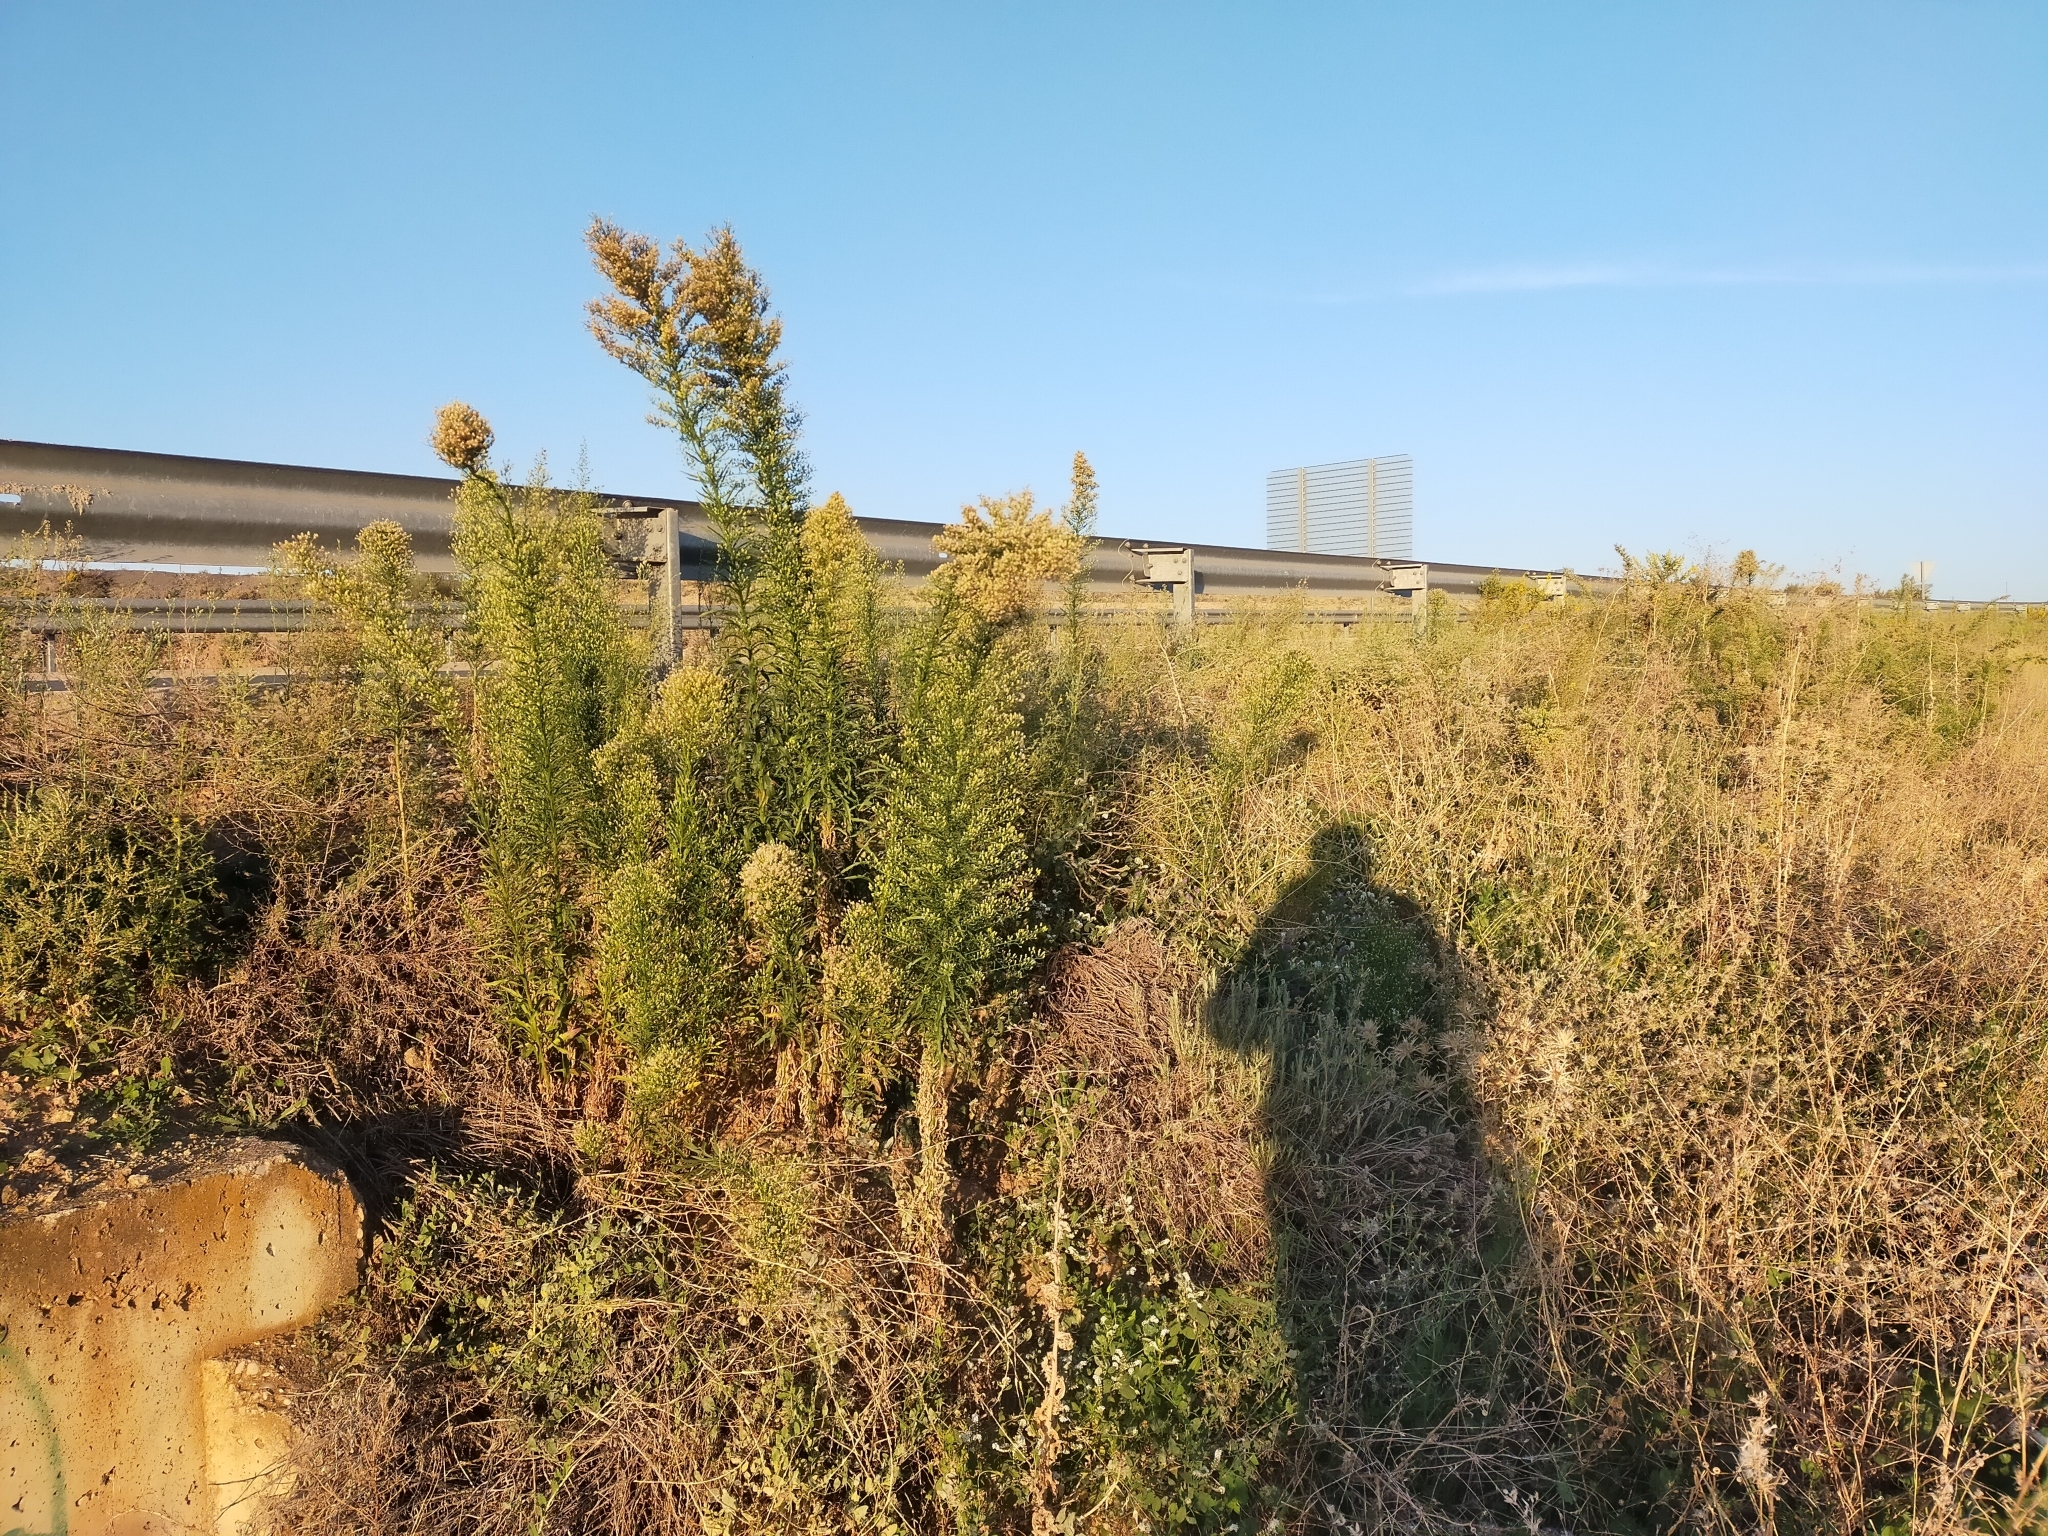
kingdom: Plantae
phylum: Tracheophyta
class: Magnoliopsida
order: Asterales
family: Asteraceae
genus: Erigeron
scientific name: Erigeron canadensis
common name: Canadian fleabane
